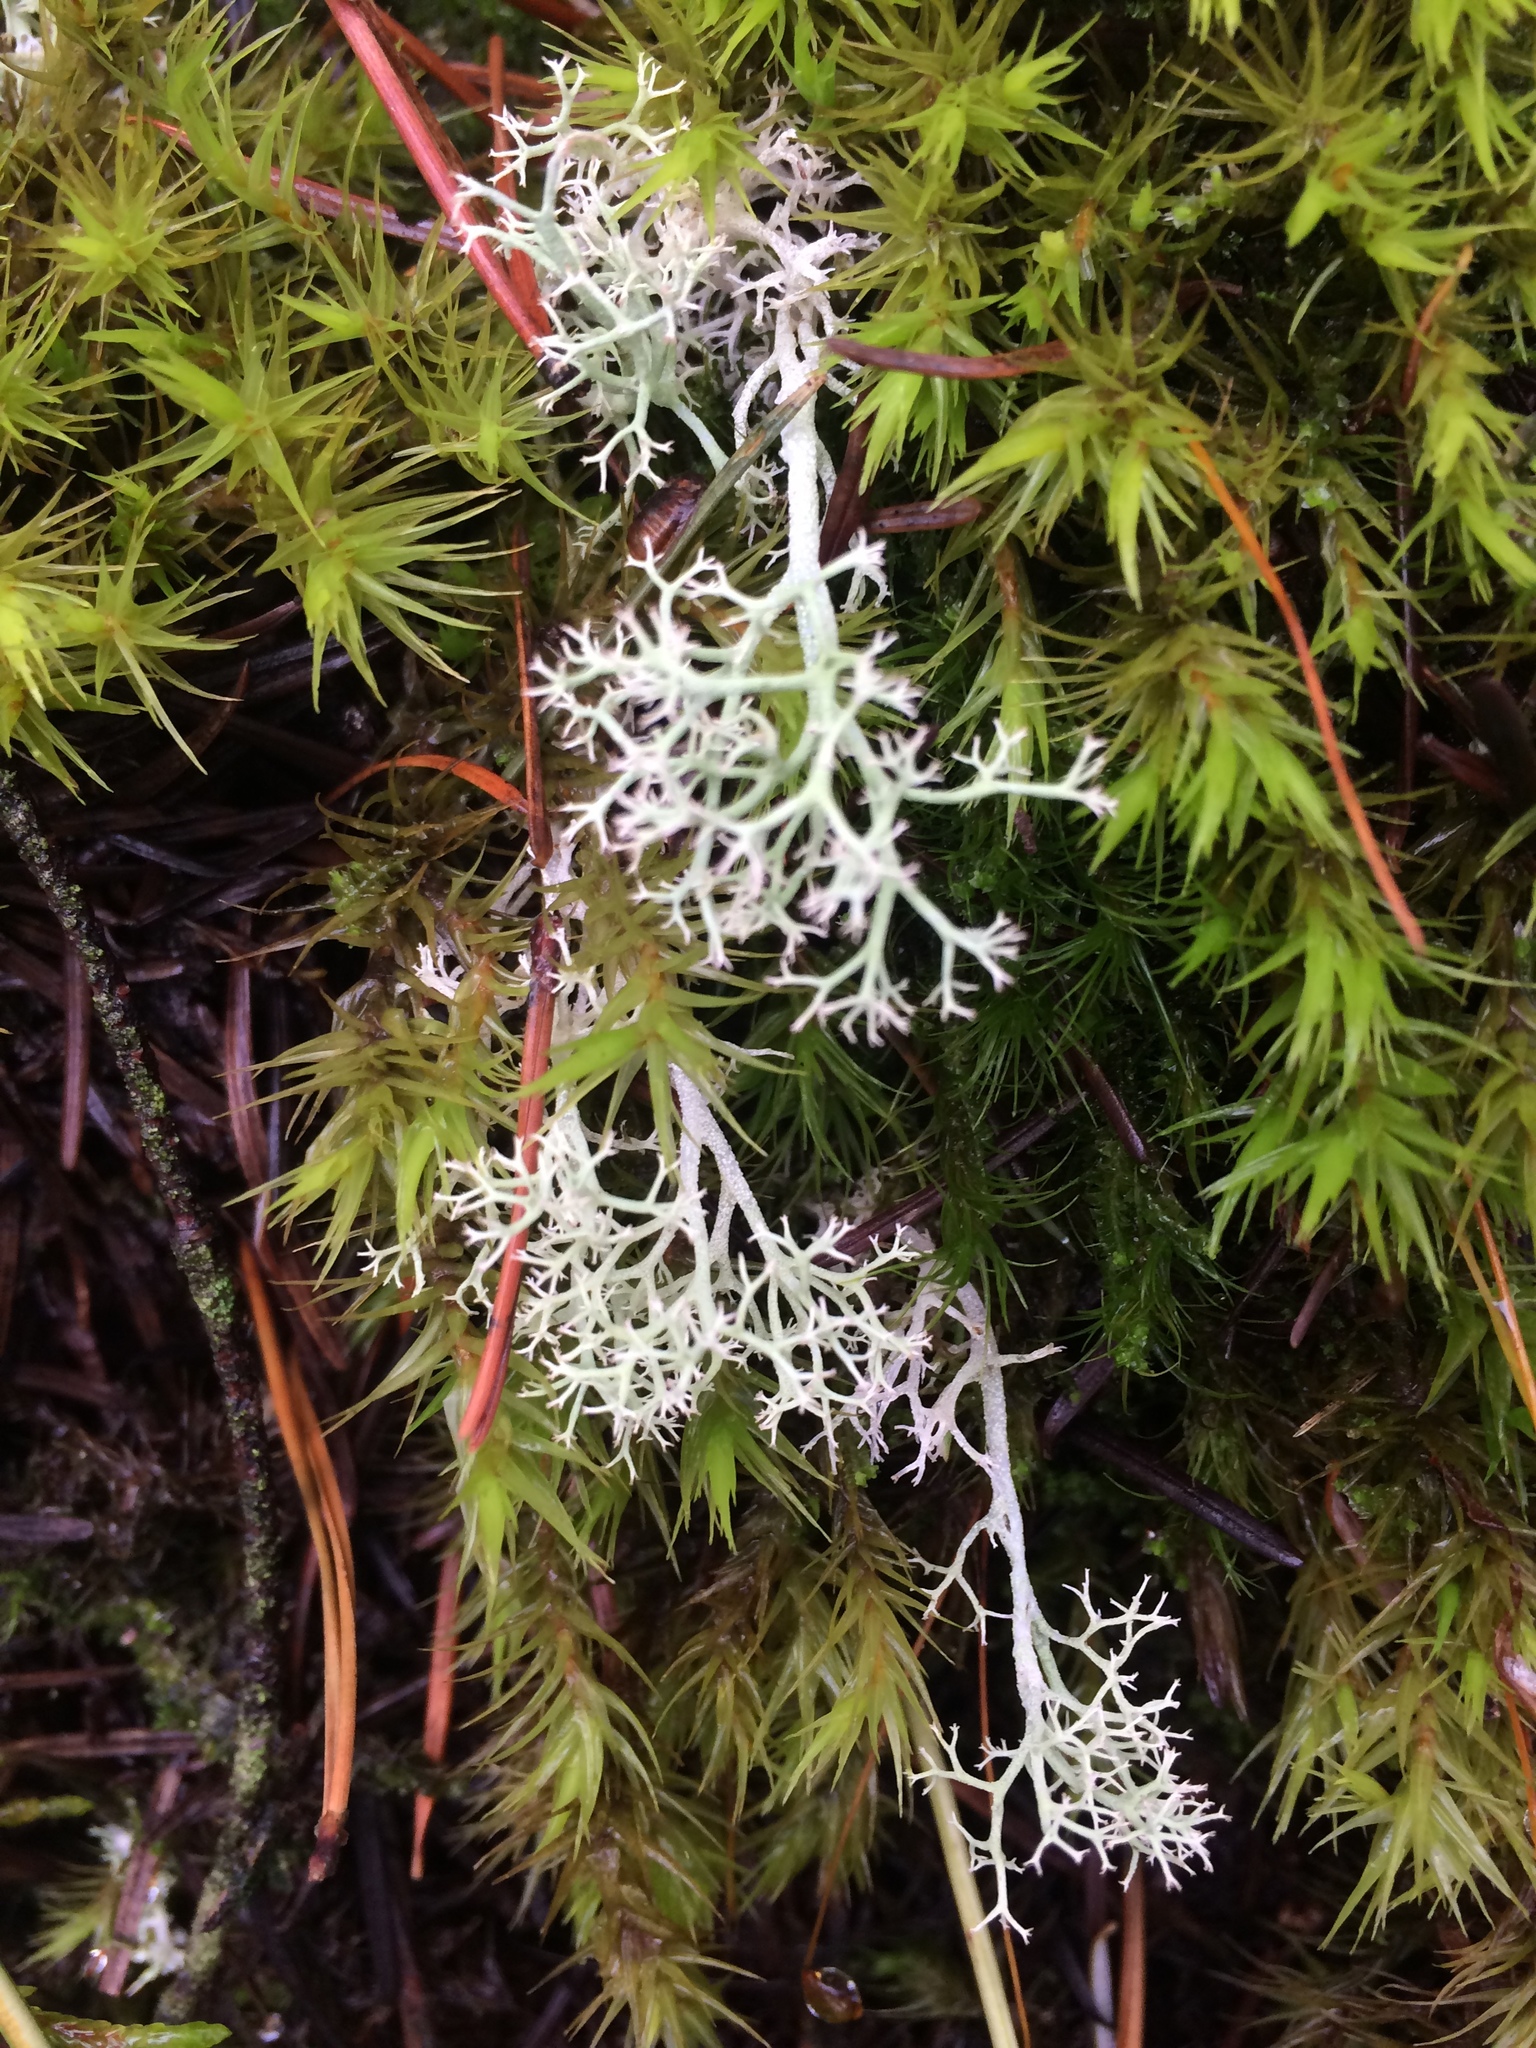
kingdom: Fungi
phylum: Ascomycota
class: Lecanoromycetes
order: Lecanorales
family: Cladoniaceae
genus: Cladonia
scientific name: Cladonia rangiferina
